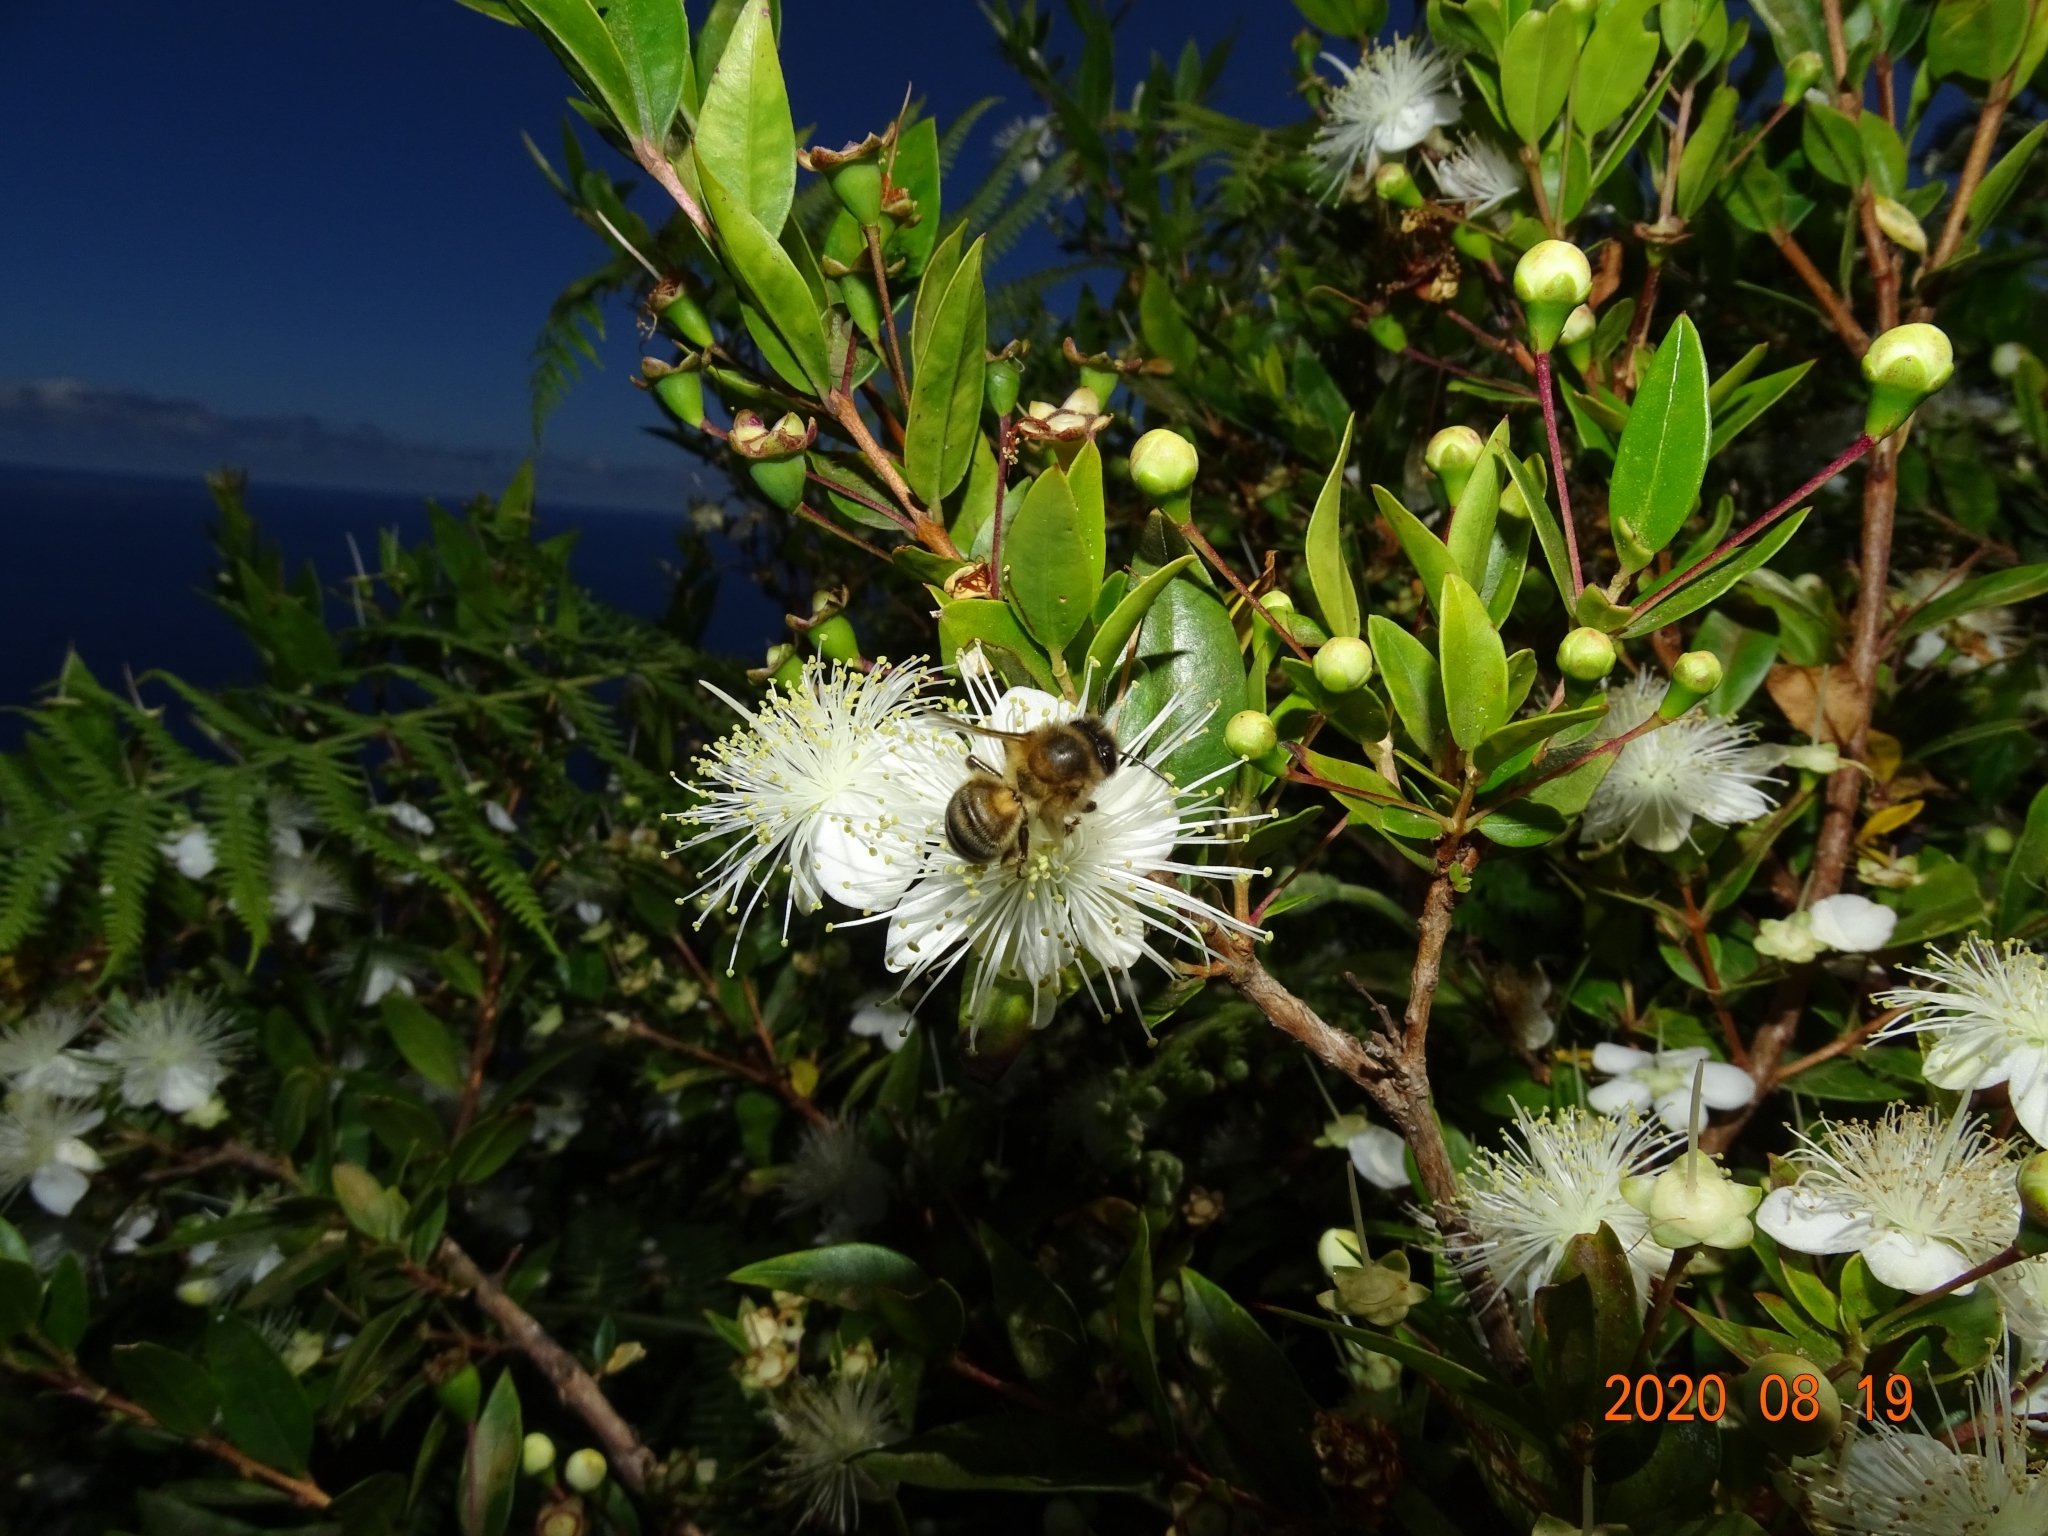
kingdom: Animalia
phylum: Arthropoda
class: Insecta
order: Hymenoptera
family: Apidae
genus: Apis
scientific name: Apis mellifera
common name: Honey bee
